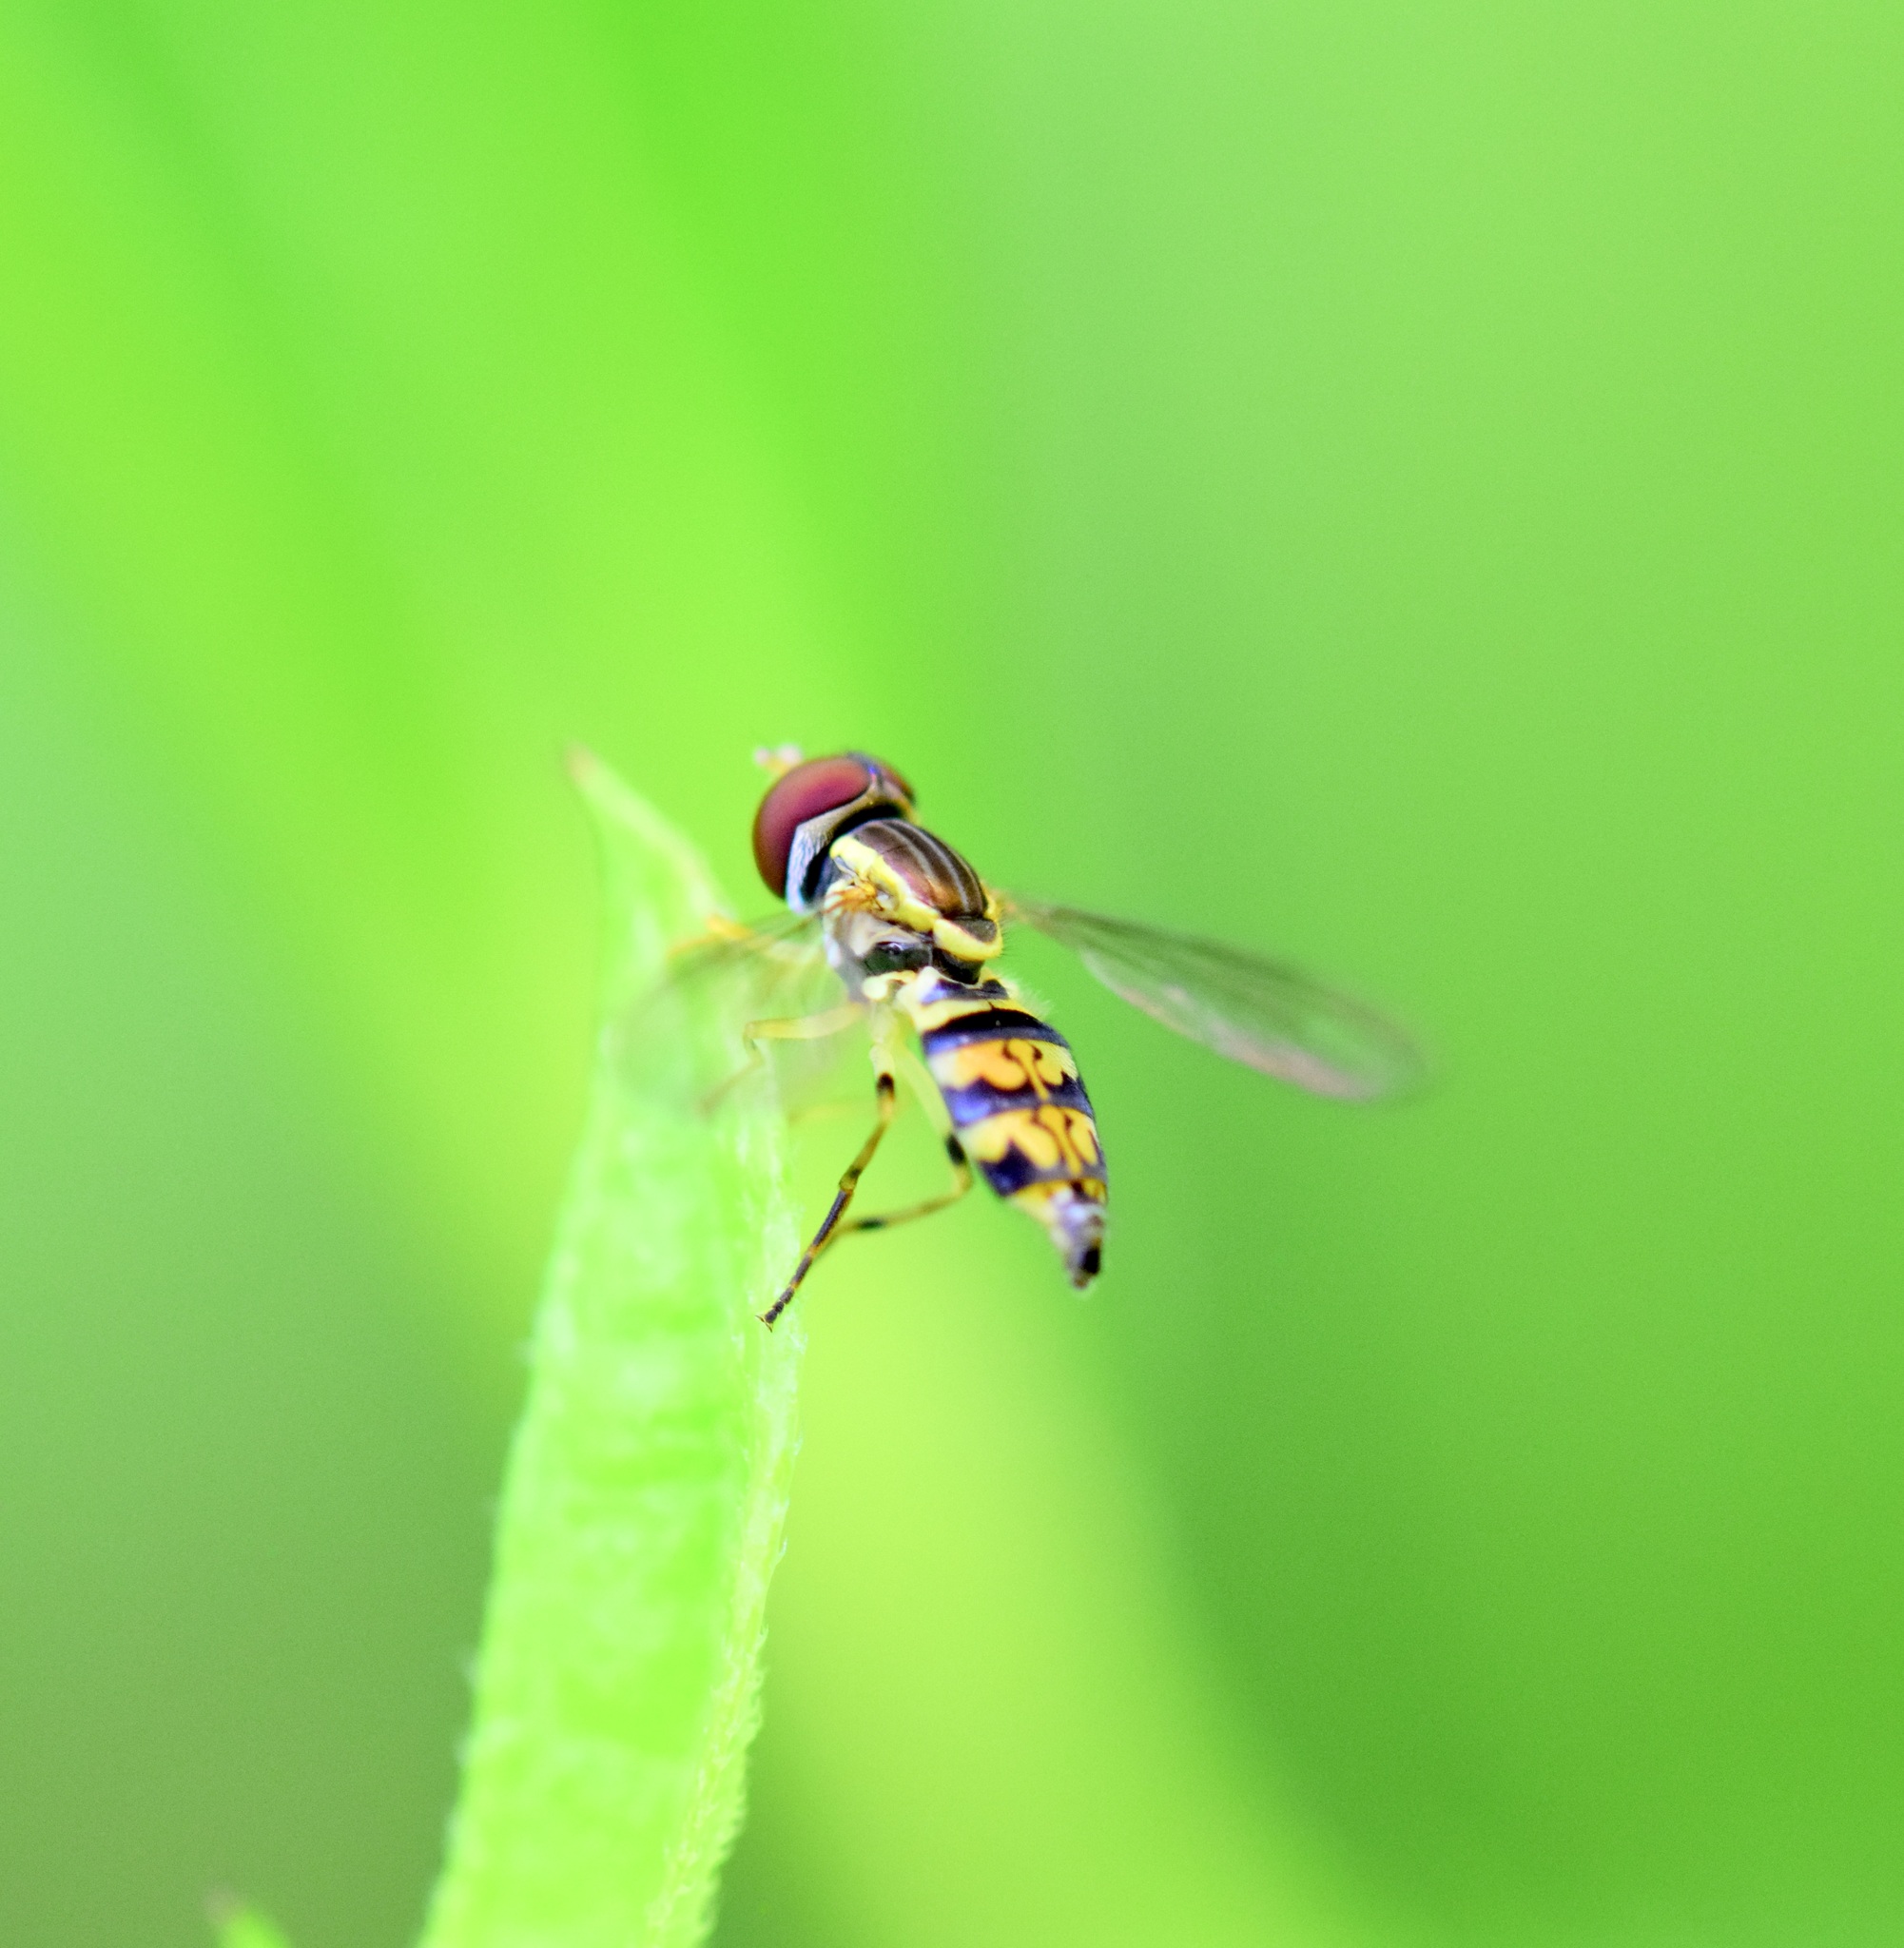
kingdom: Animalia
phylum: Arthropoda
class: Insecta
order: Diptera
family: Syrphidae
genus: Toxomerus
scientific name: Toxomerus geminatus
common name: Eastern calligrapher
